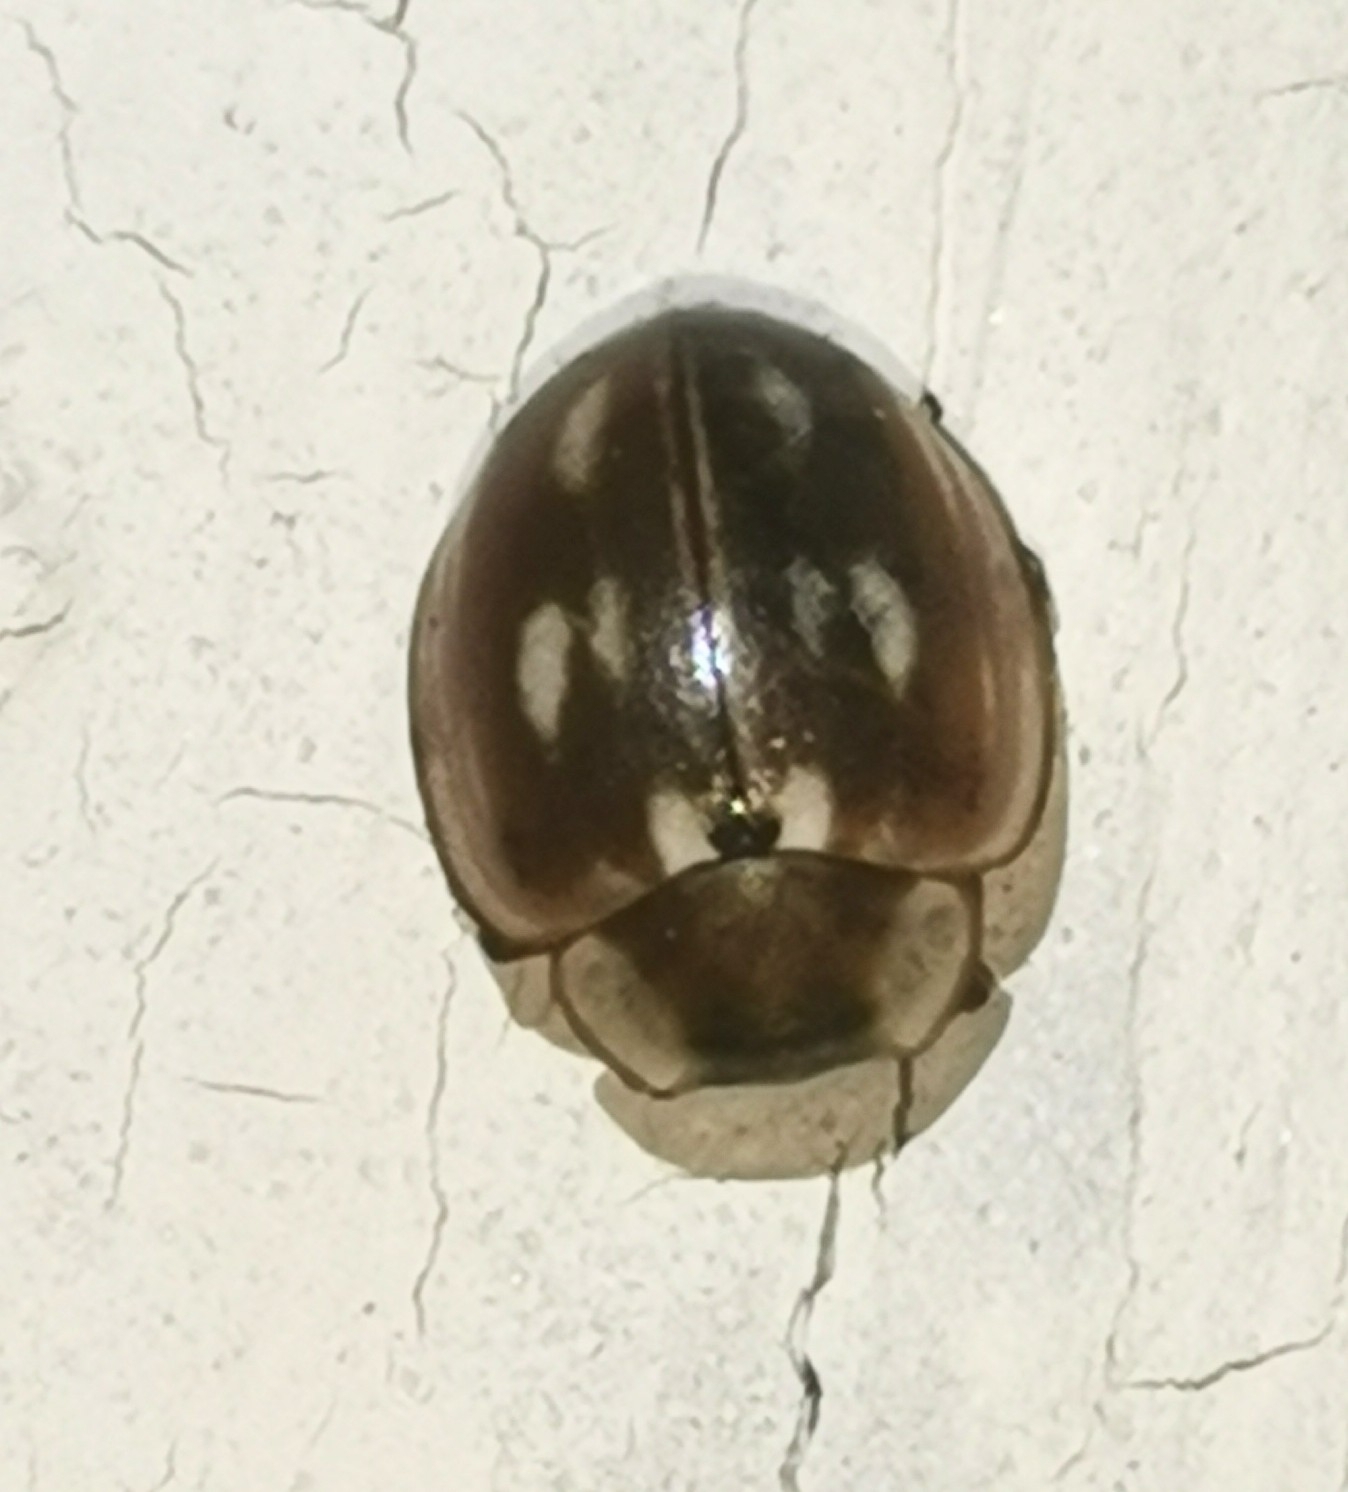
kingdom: Animalia
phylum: Arthropoda
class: Insecta
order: Coleoptera
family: Coccinellidae
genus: Myzia
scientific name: Myzia oblongoguttata
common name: Striped ladybird
